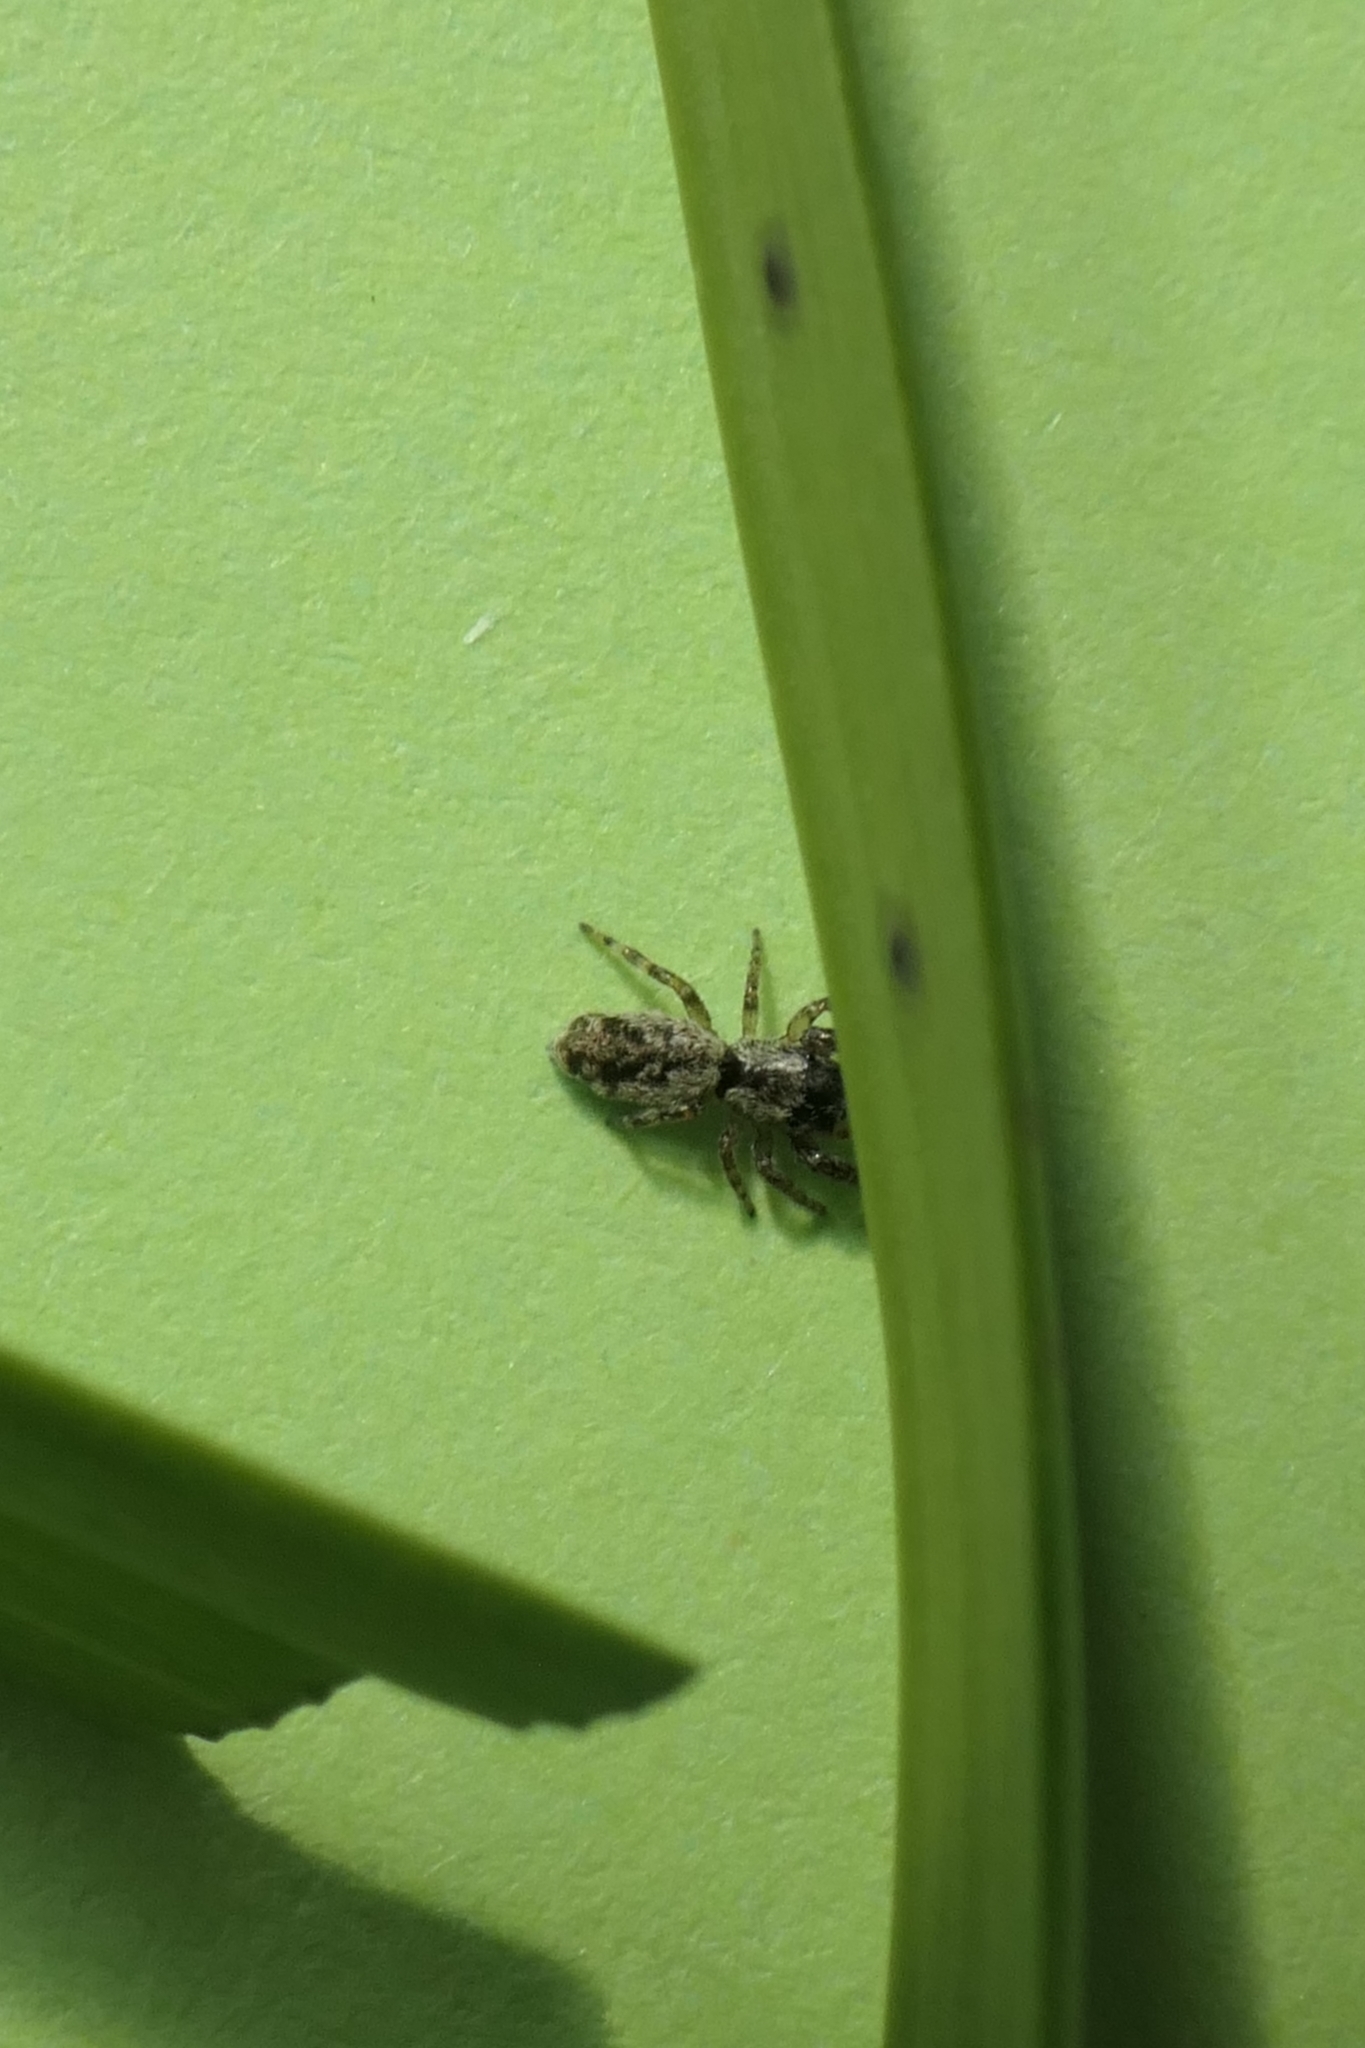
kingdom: Animalia
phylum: Arthropoda
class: Arachnida
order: Araneae
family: Salticidae
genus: Adoxotoma
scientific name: Adoxotoma forsteri
